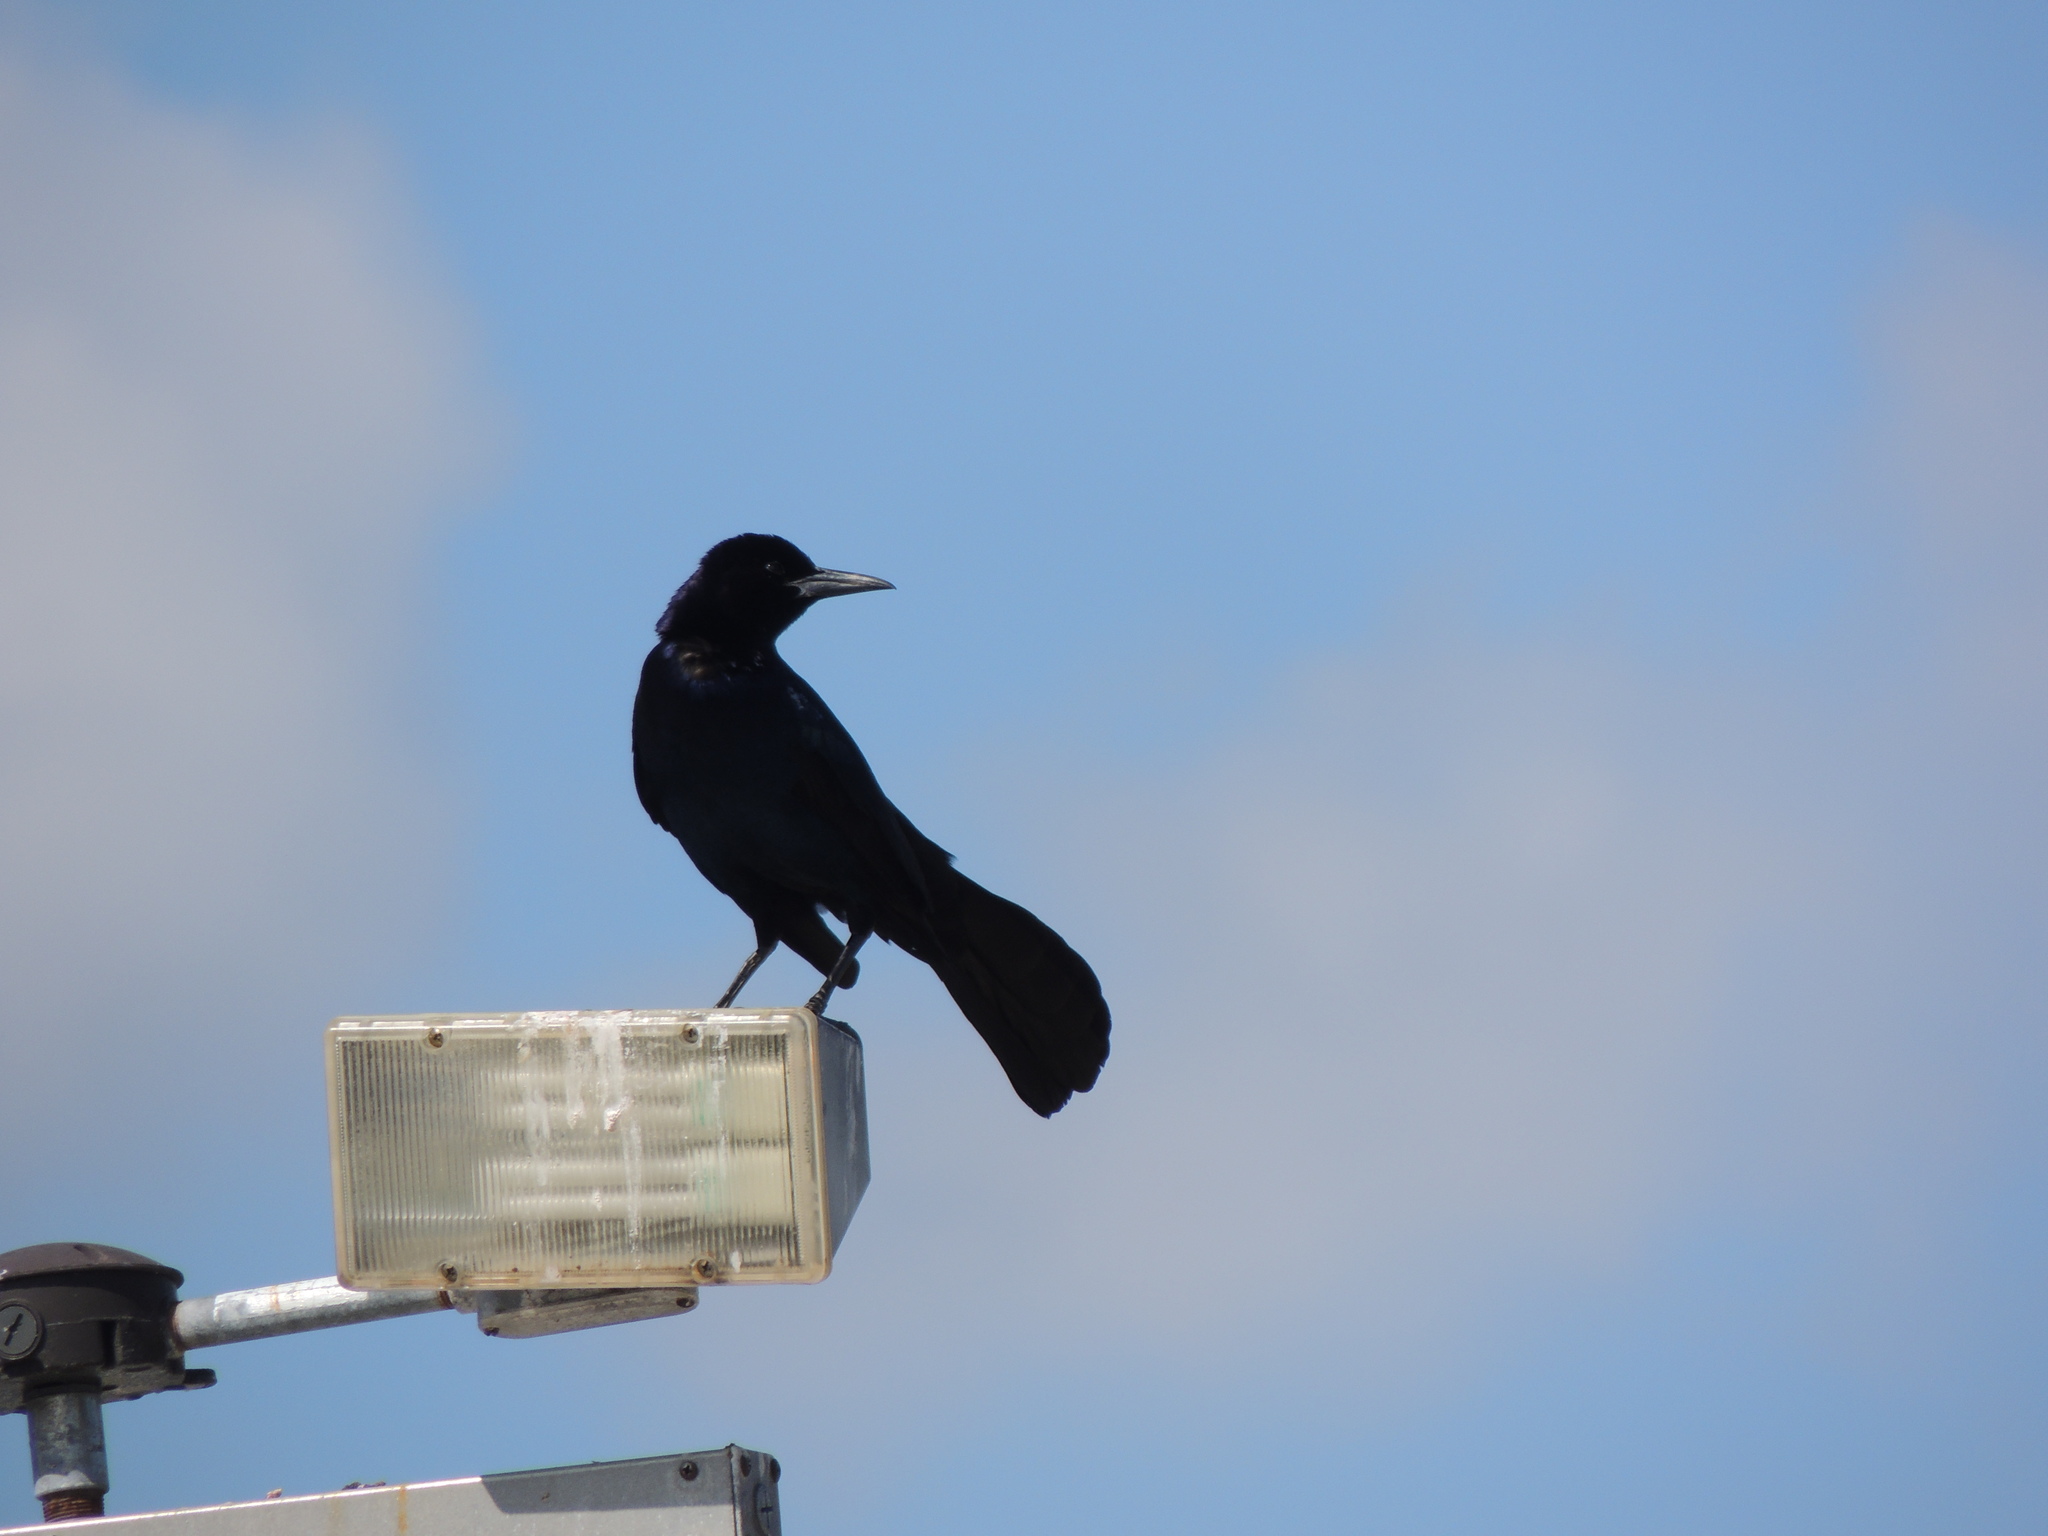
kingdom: Animalia
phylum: Chordata
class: Aves
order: Passeriformes
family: Icteridae
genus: Quiscalus
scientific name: Quiscalus major
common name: Boat-tailed grackle
